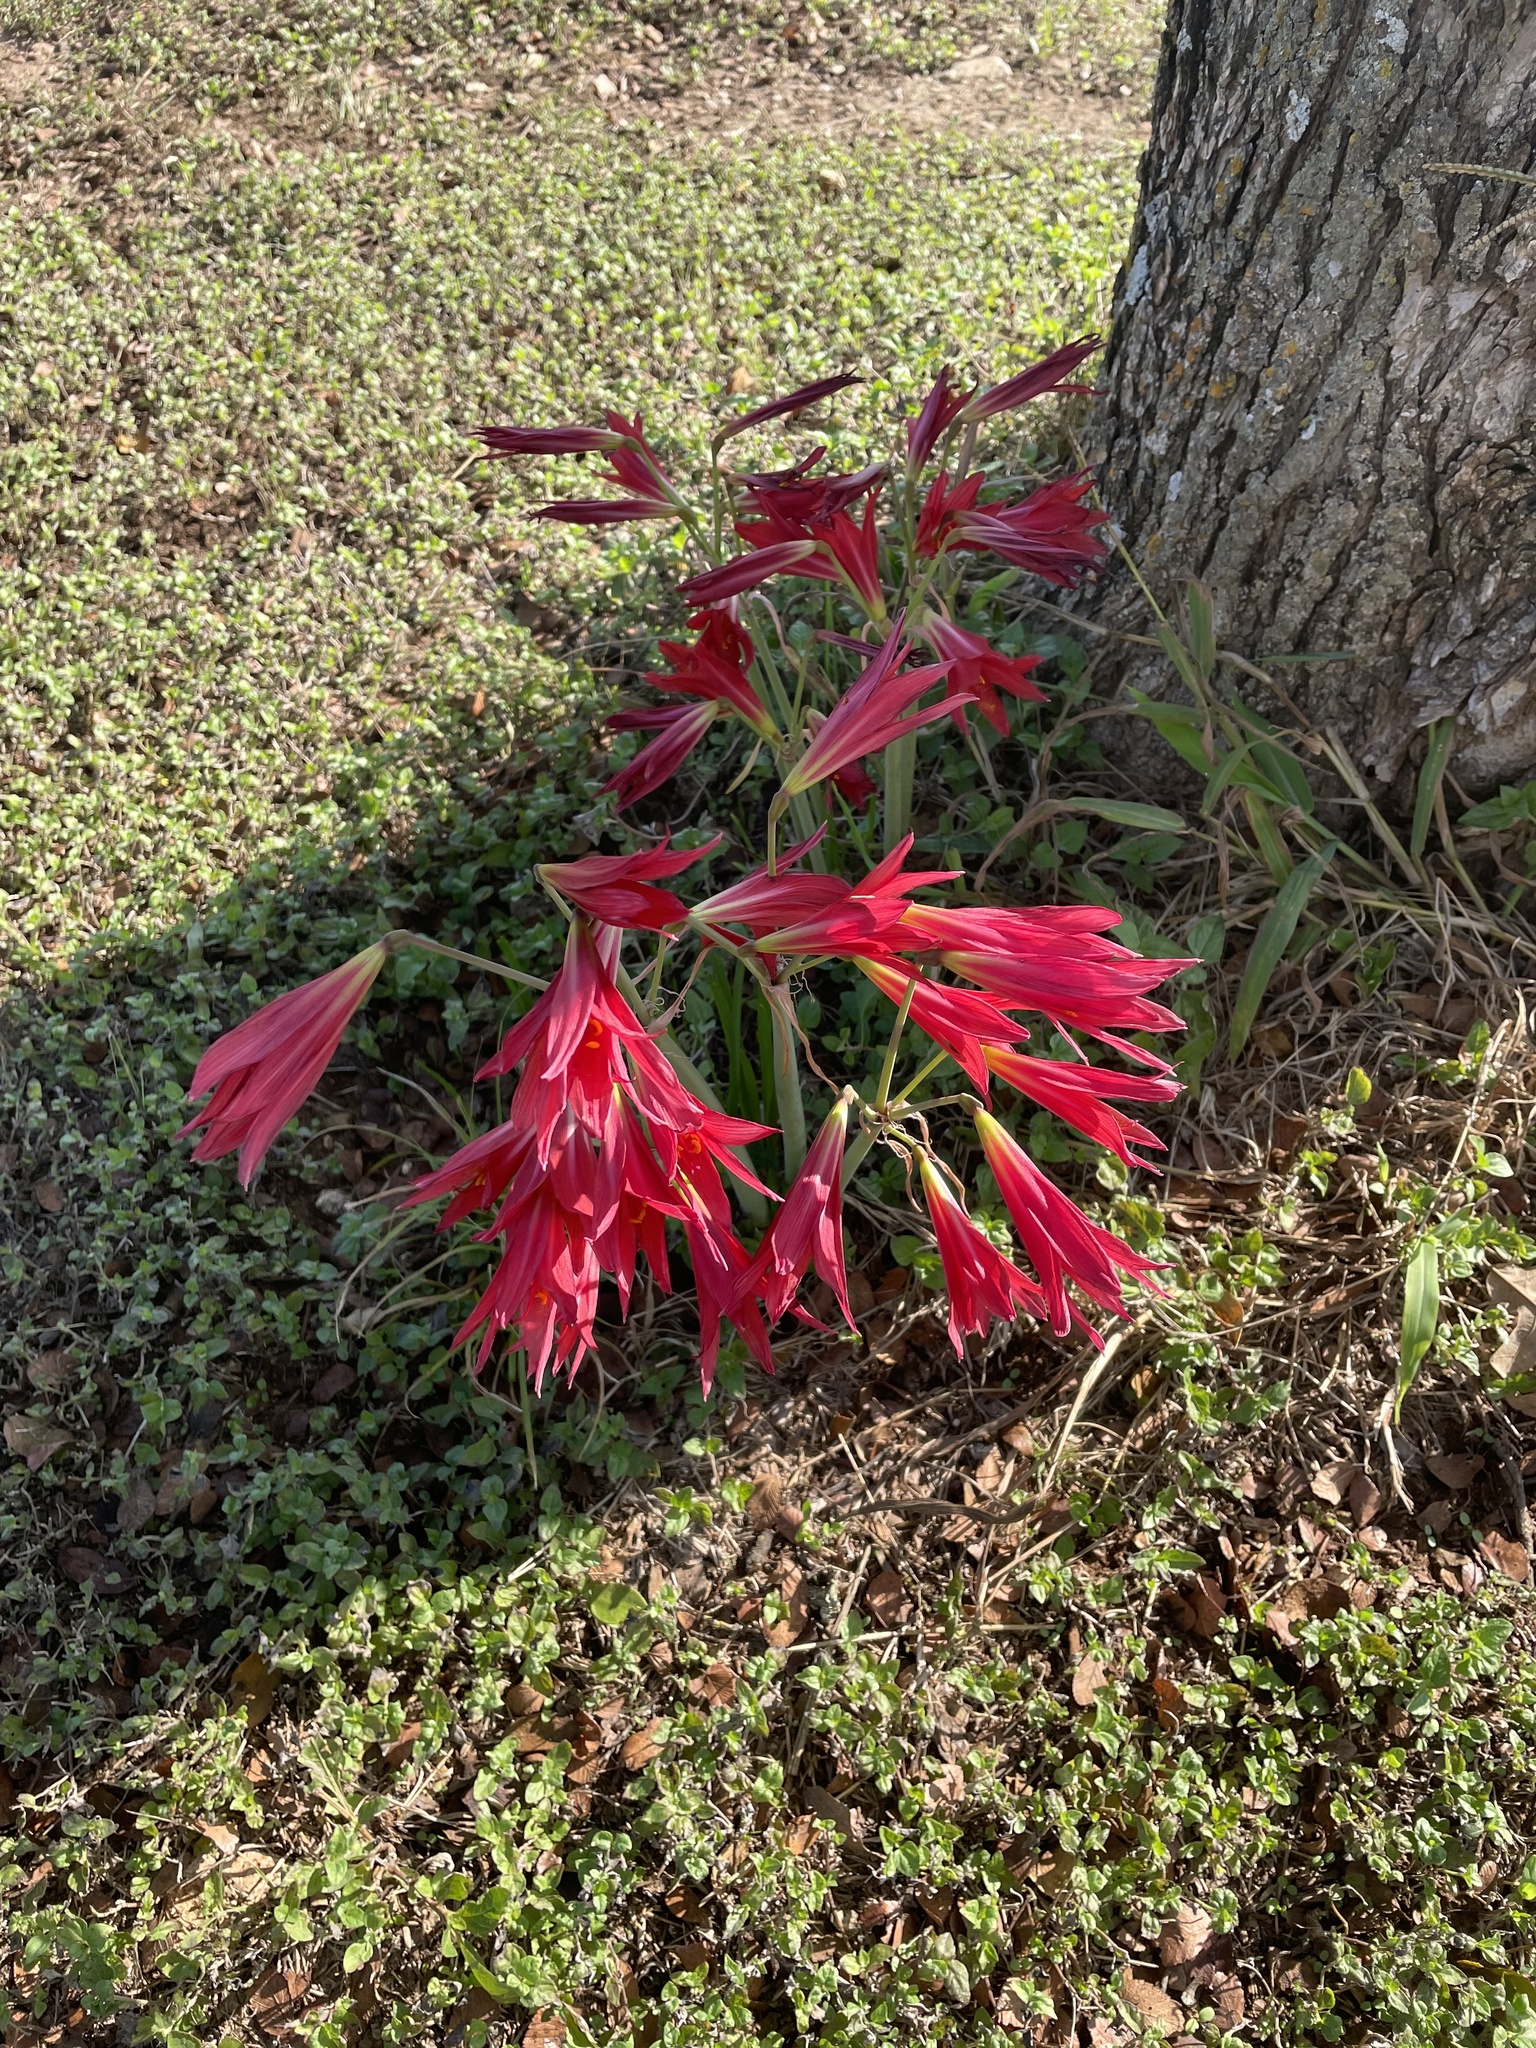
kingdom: Plantae
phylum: Tracheophyta
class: Liliopsida
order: Asparagales
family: Amaryllidaceae
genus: Zephyranthes
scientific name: Zephyranthes bifida
